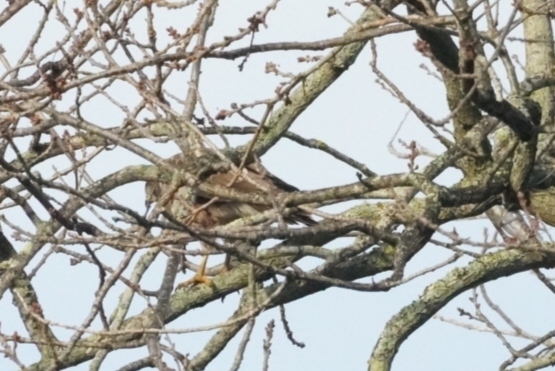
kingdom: Animalia
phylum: Chordata
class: Aves
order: Accipitriformes
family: Accipitridae
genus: Buteo
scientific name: Buteo trizonatus
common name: Forest buzzard
